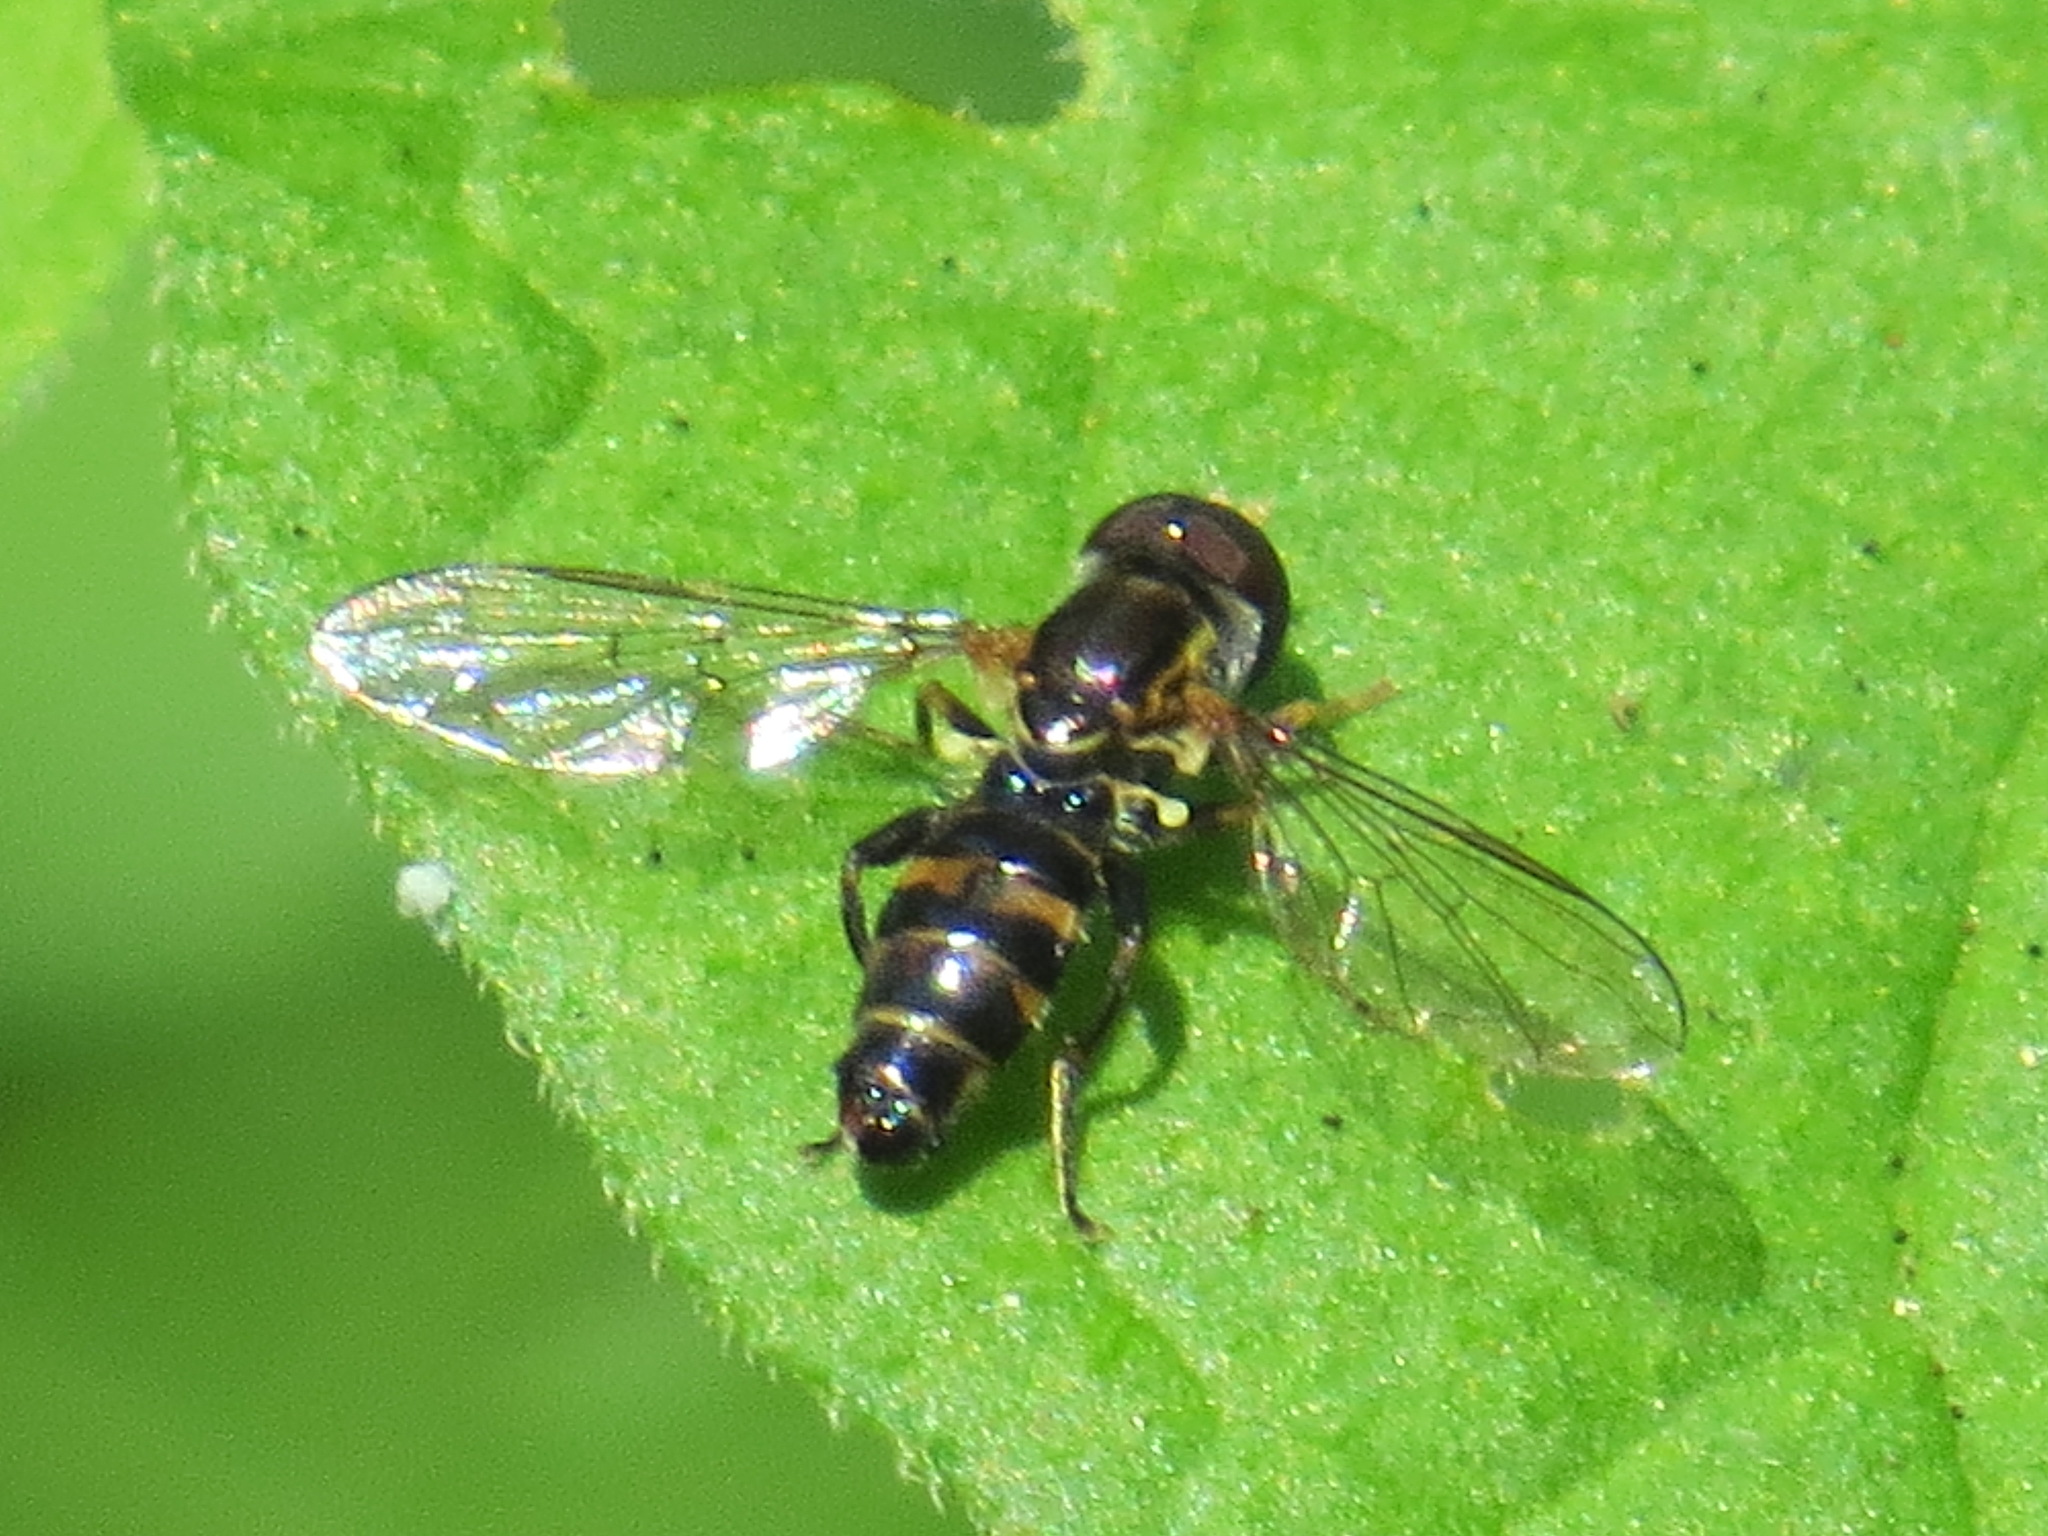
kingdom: Animalia
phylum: Arthropoda
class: Insecta
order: Diptera
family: Syrphidae
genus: Toxomerus
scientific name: Toxomerus occidentalis
